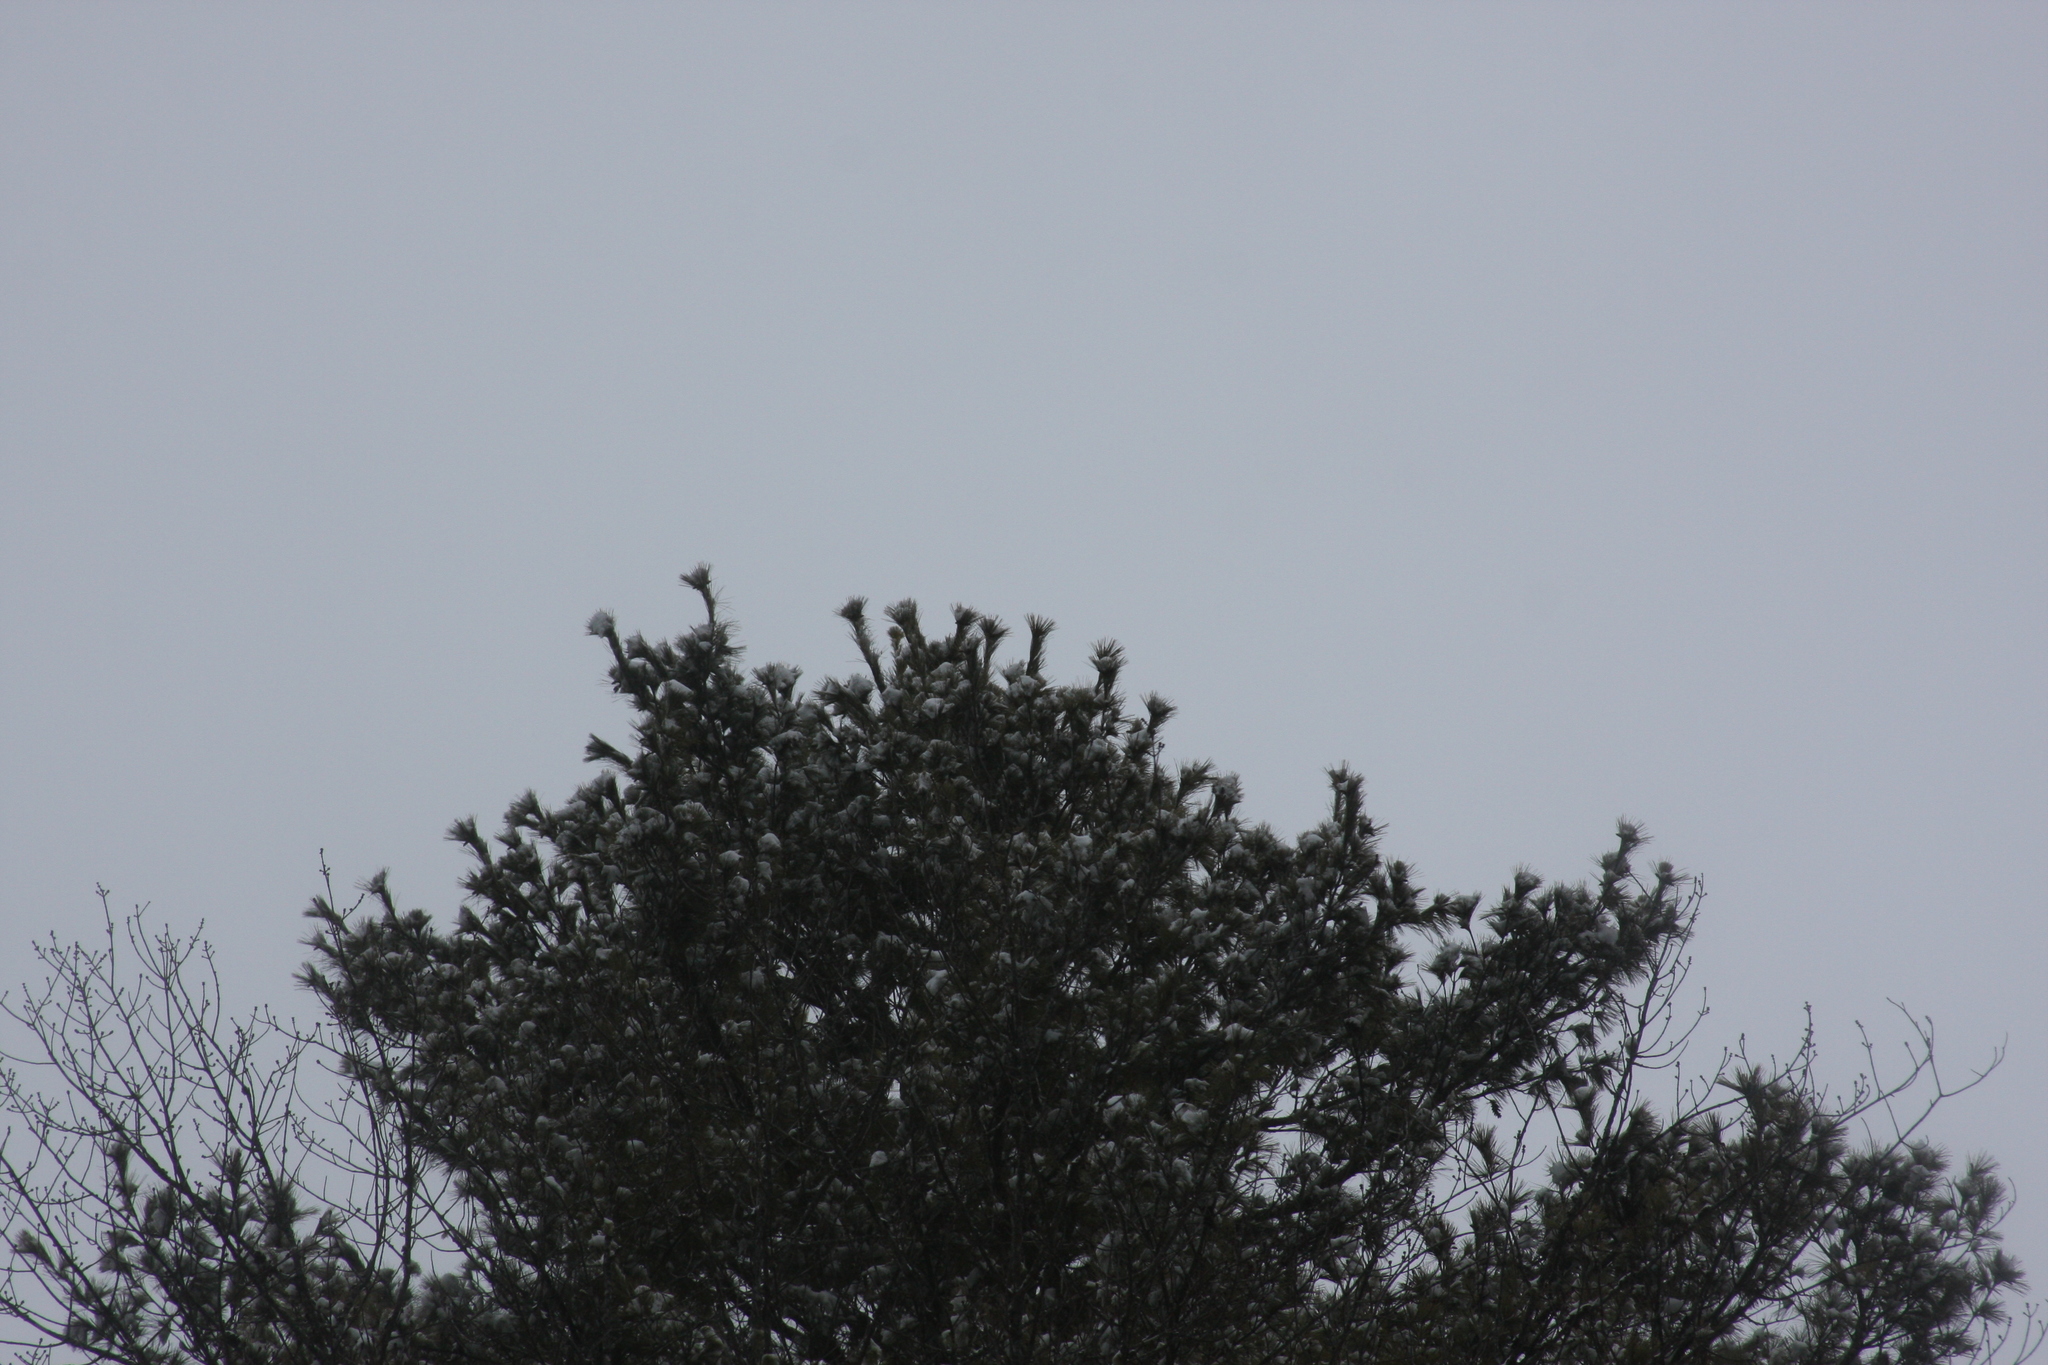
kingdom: Plantae
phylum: Tracheophyta
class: Pinopsida
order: Pinales
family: Pinaceae
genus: Pinus
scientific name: Pinus strobus
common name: Weymouth pine
